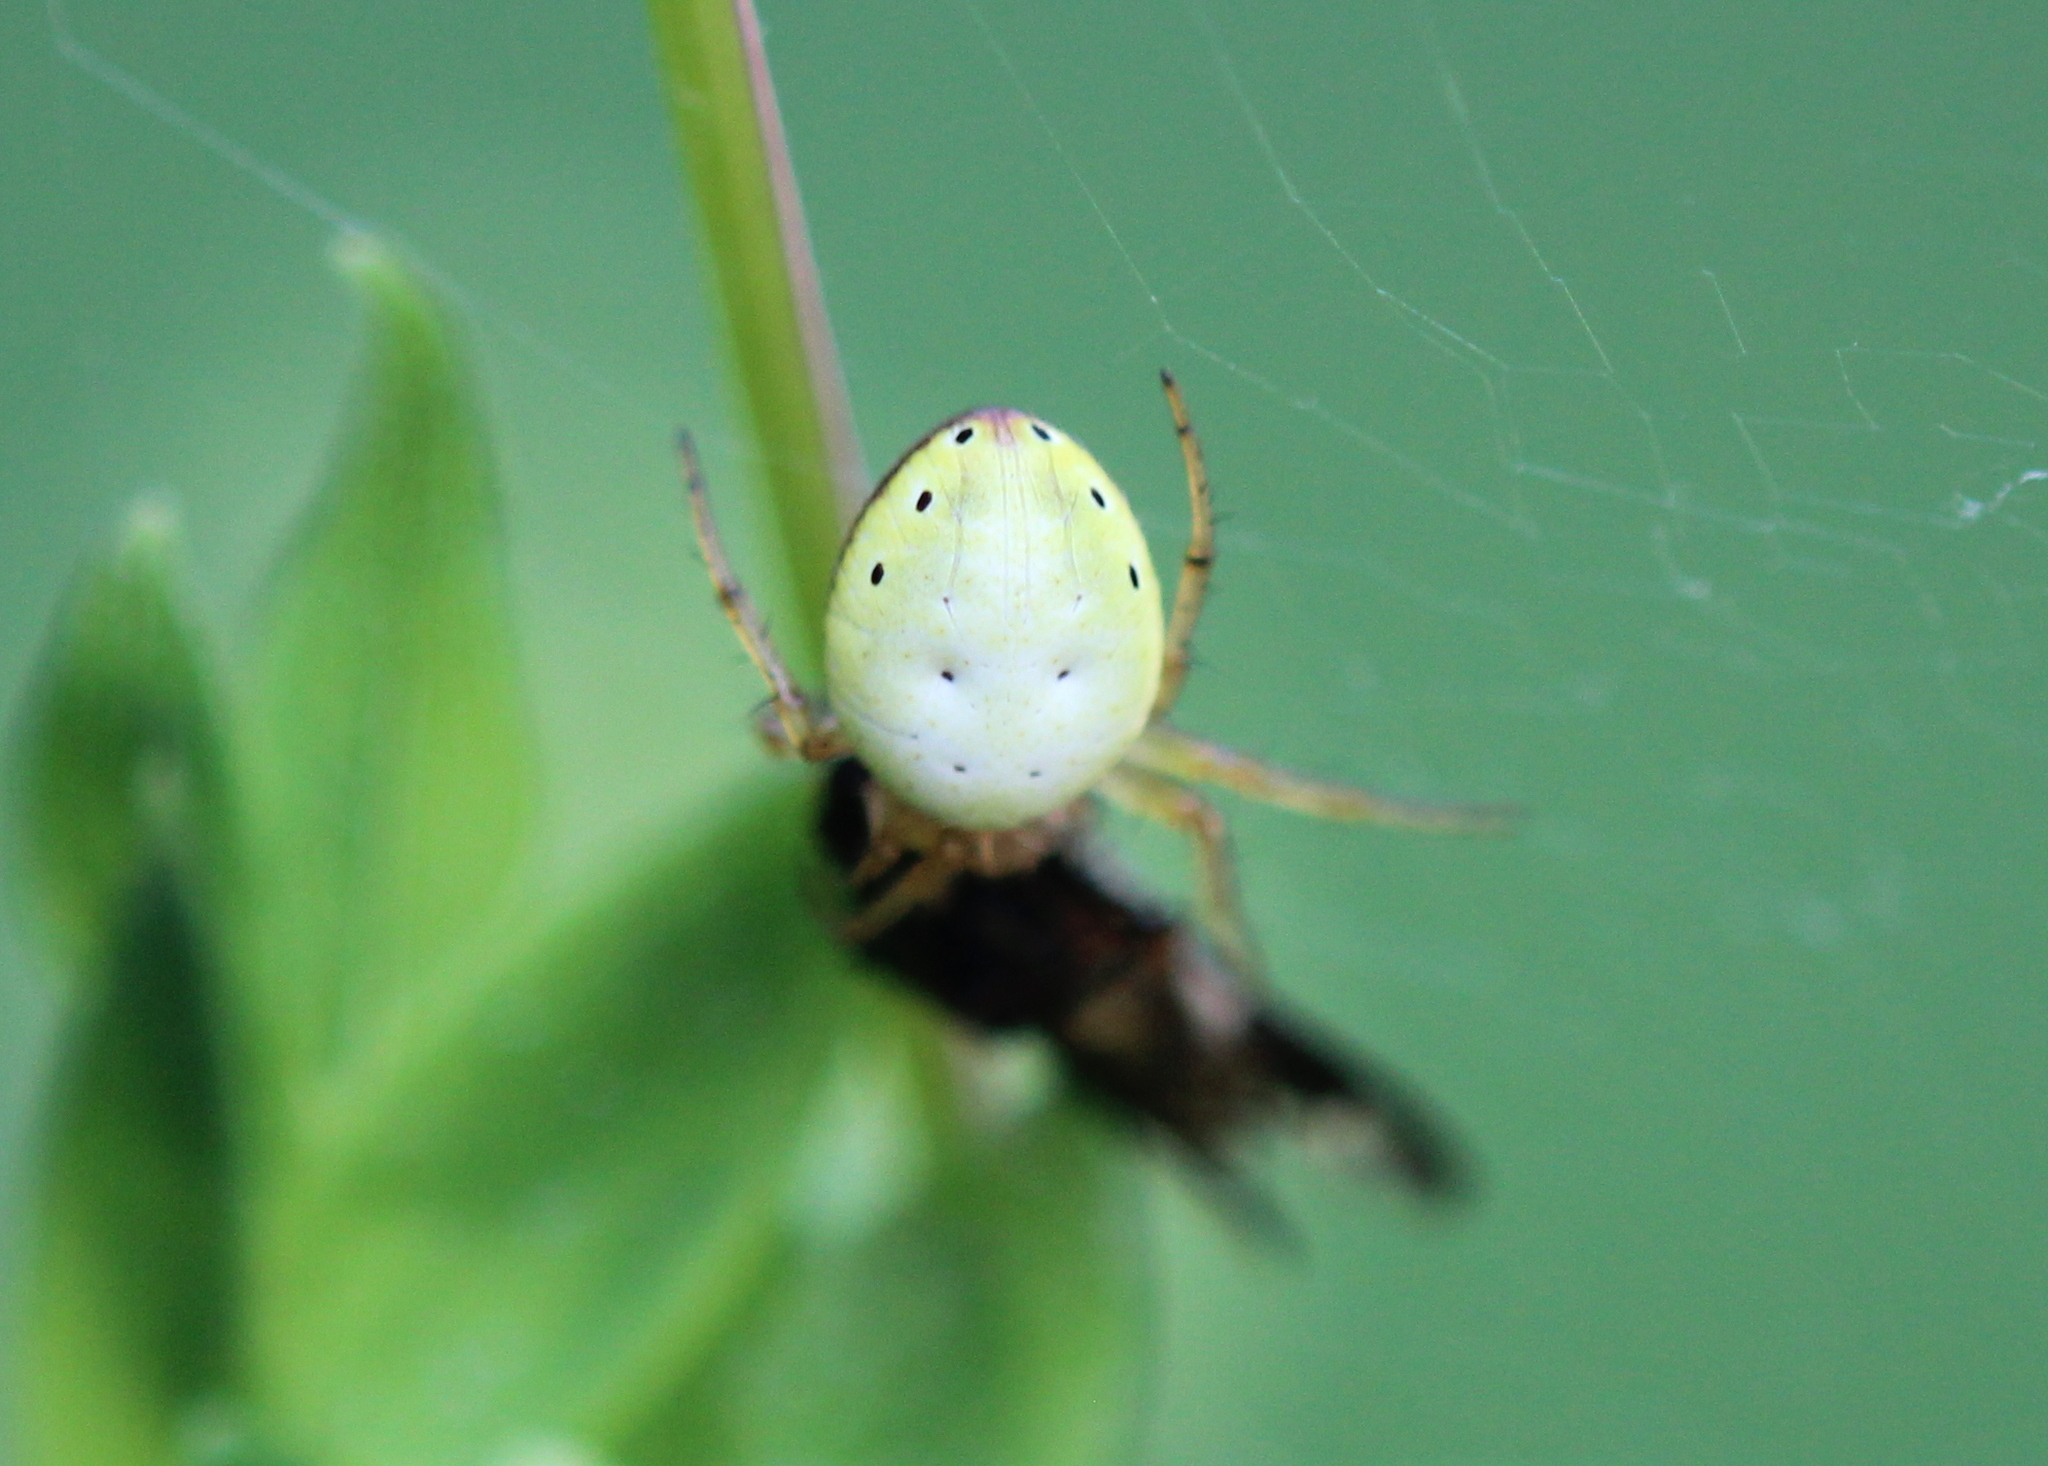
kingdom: Animalia
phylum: Arthropoda
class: Arachnida
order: Araneae
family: Araneidae
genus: Araniella
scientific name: Araniella displicata
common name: Sixspotted orb weaver
